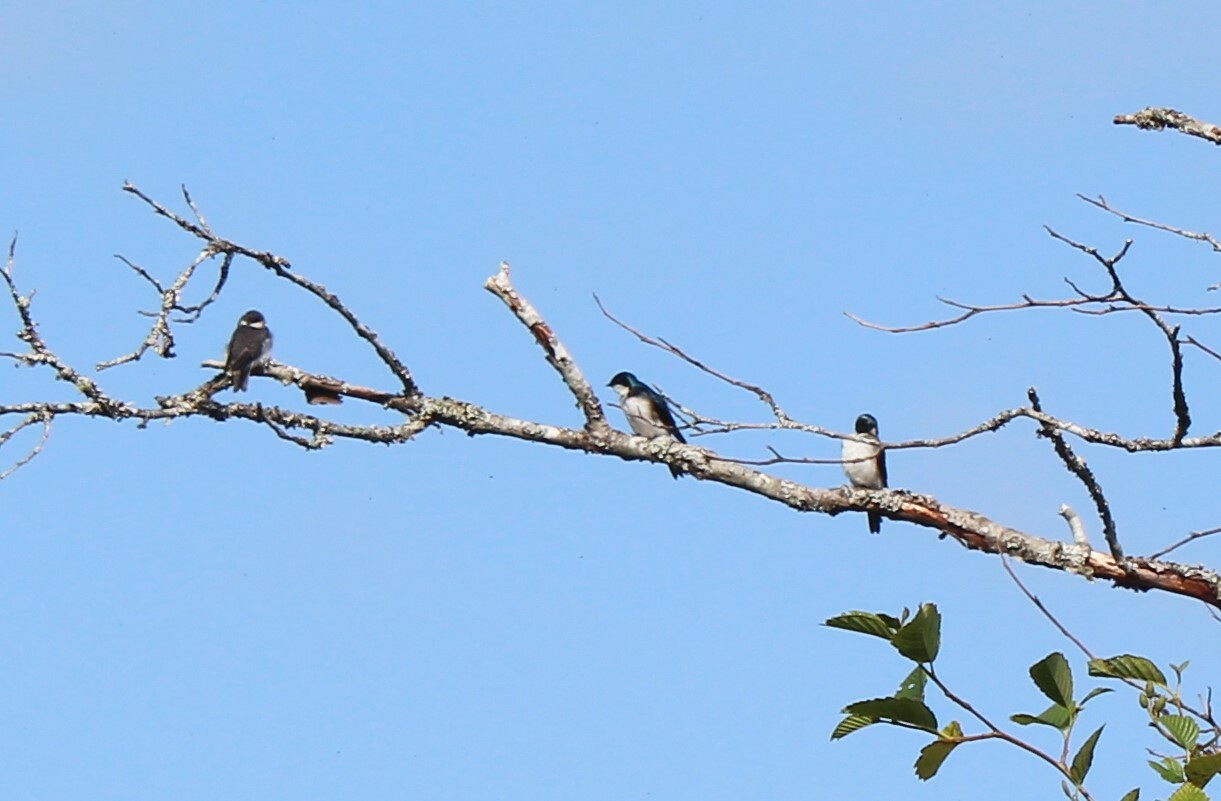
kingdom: Animalia
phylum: Chordata
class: Aves
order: Passeriformes
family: Hirundinidae
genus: Tachycineta
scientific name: Tachycineta bicolor
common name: Tree swallow
